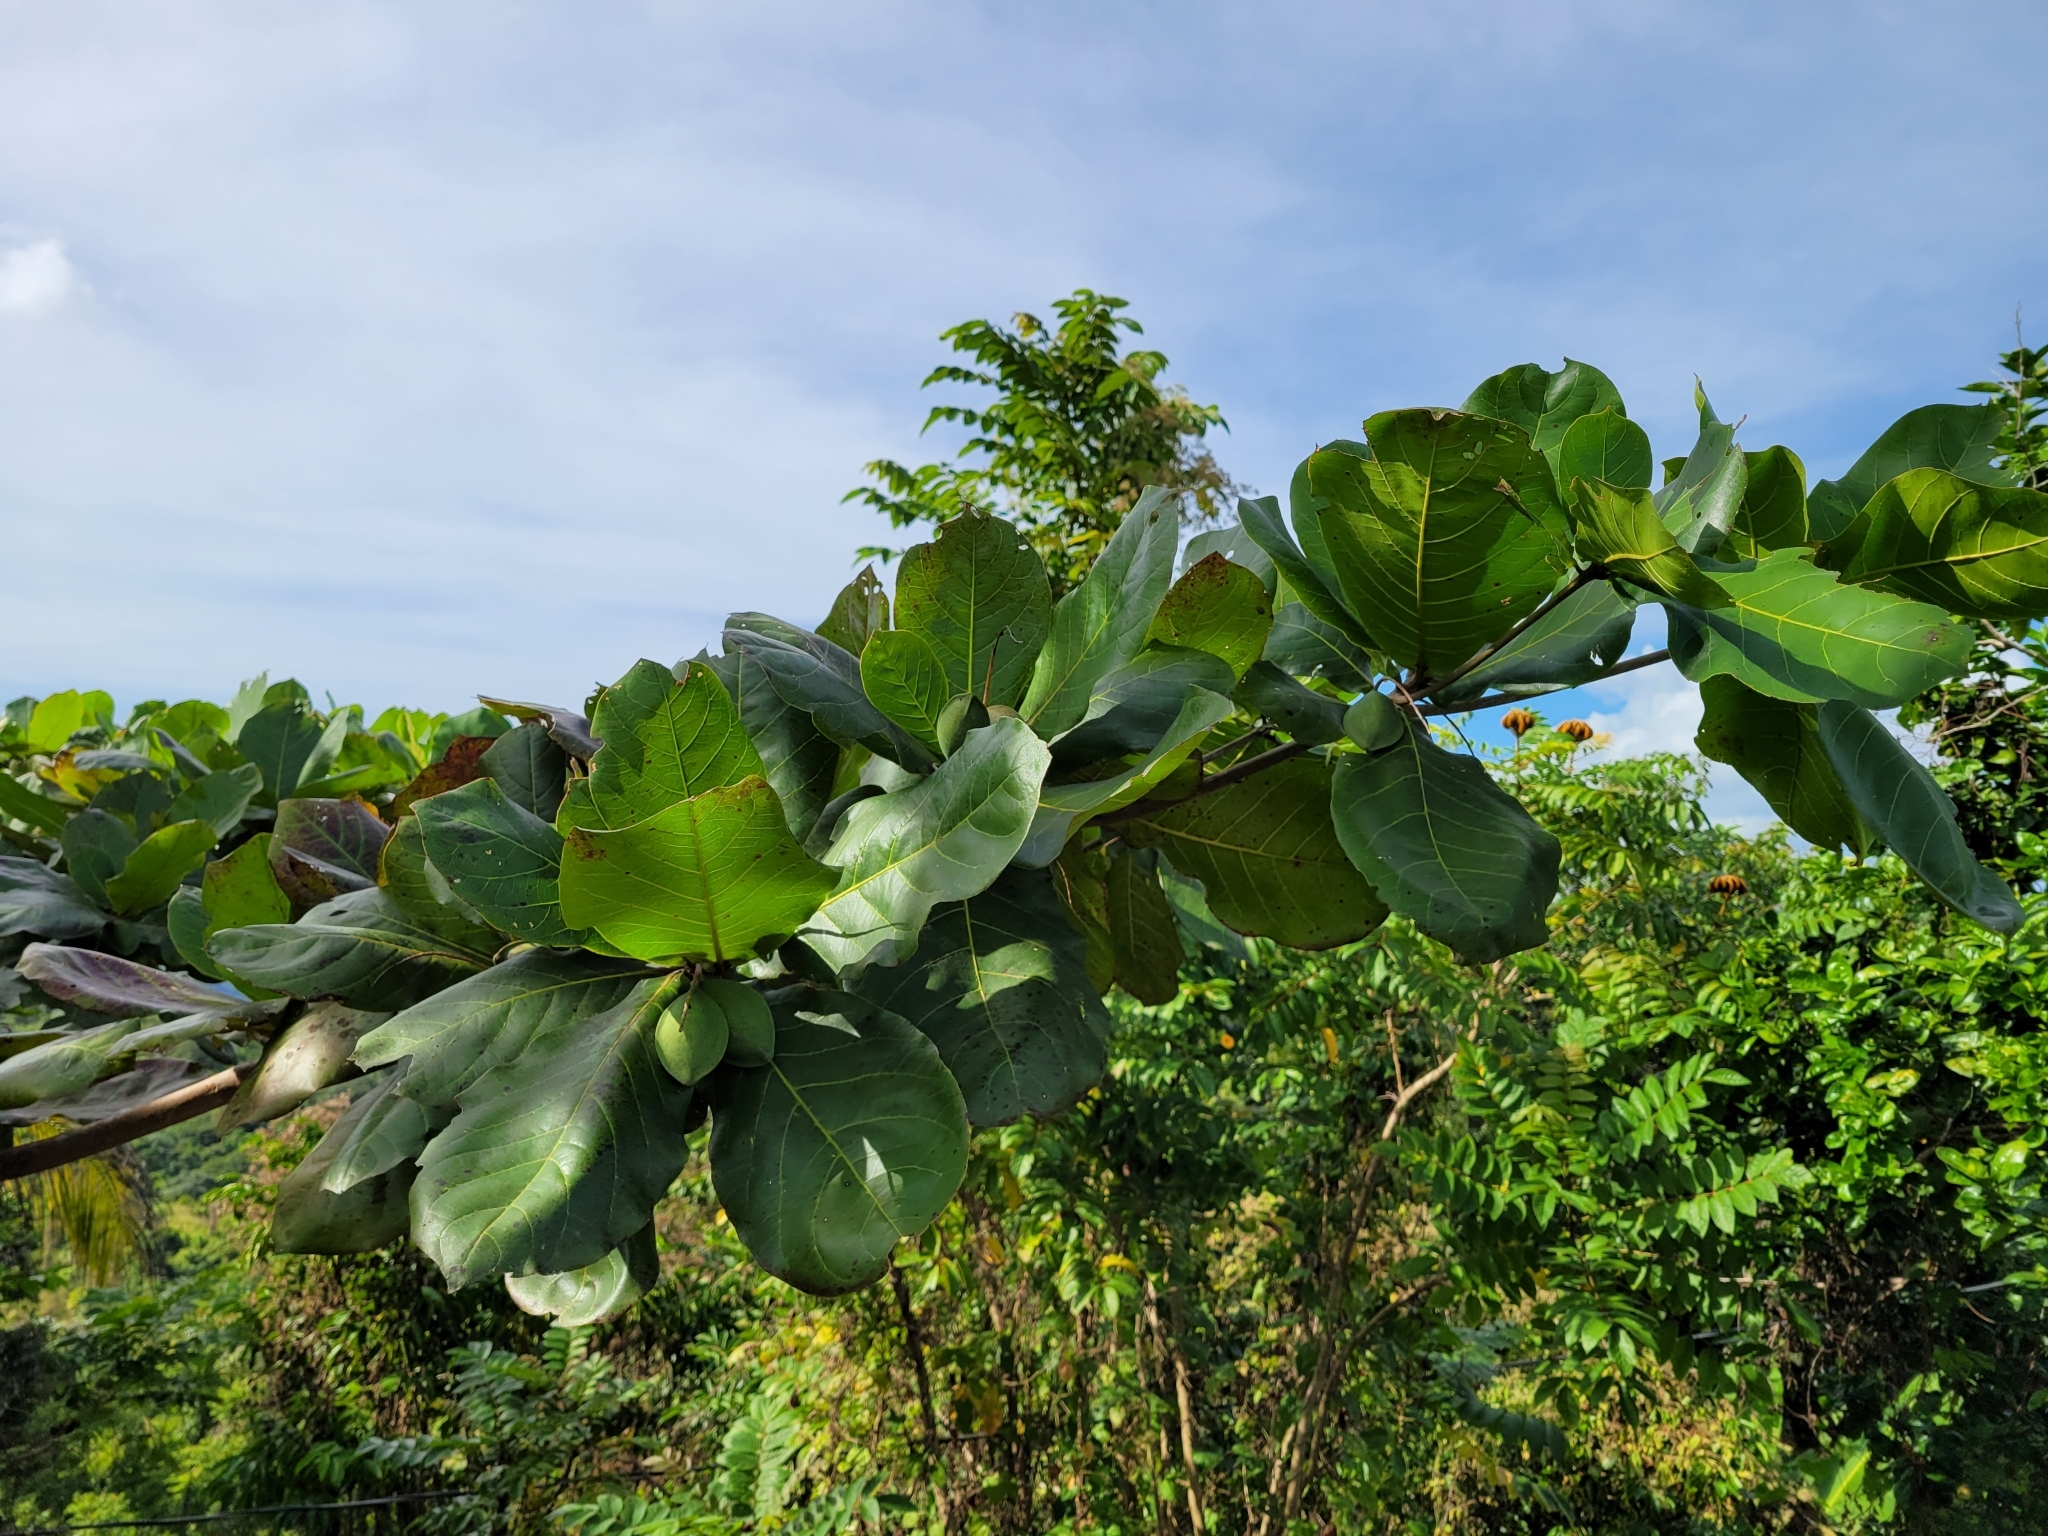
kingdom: Plantae
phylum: Tracheophyta
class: Magnoliopsida
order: Myrtales
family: Combretaceae
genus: Terminalia
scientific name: Terminalia catappa
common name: Tropical almond
